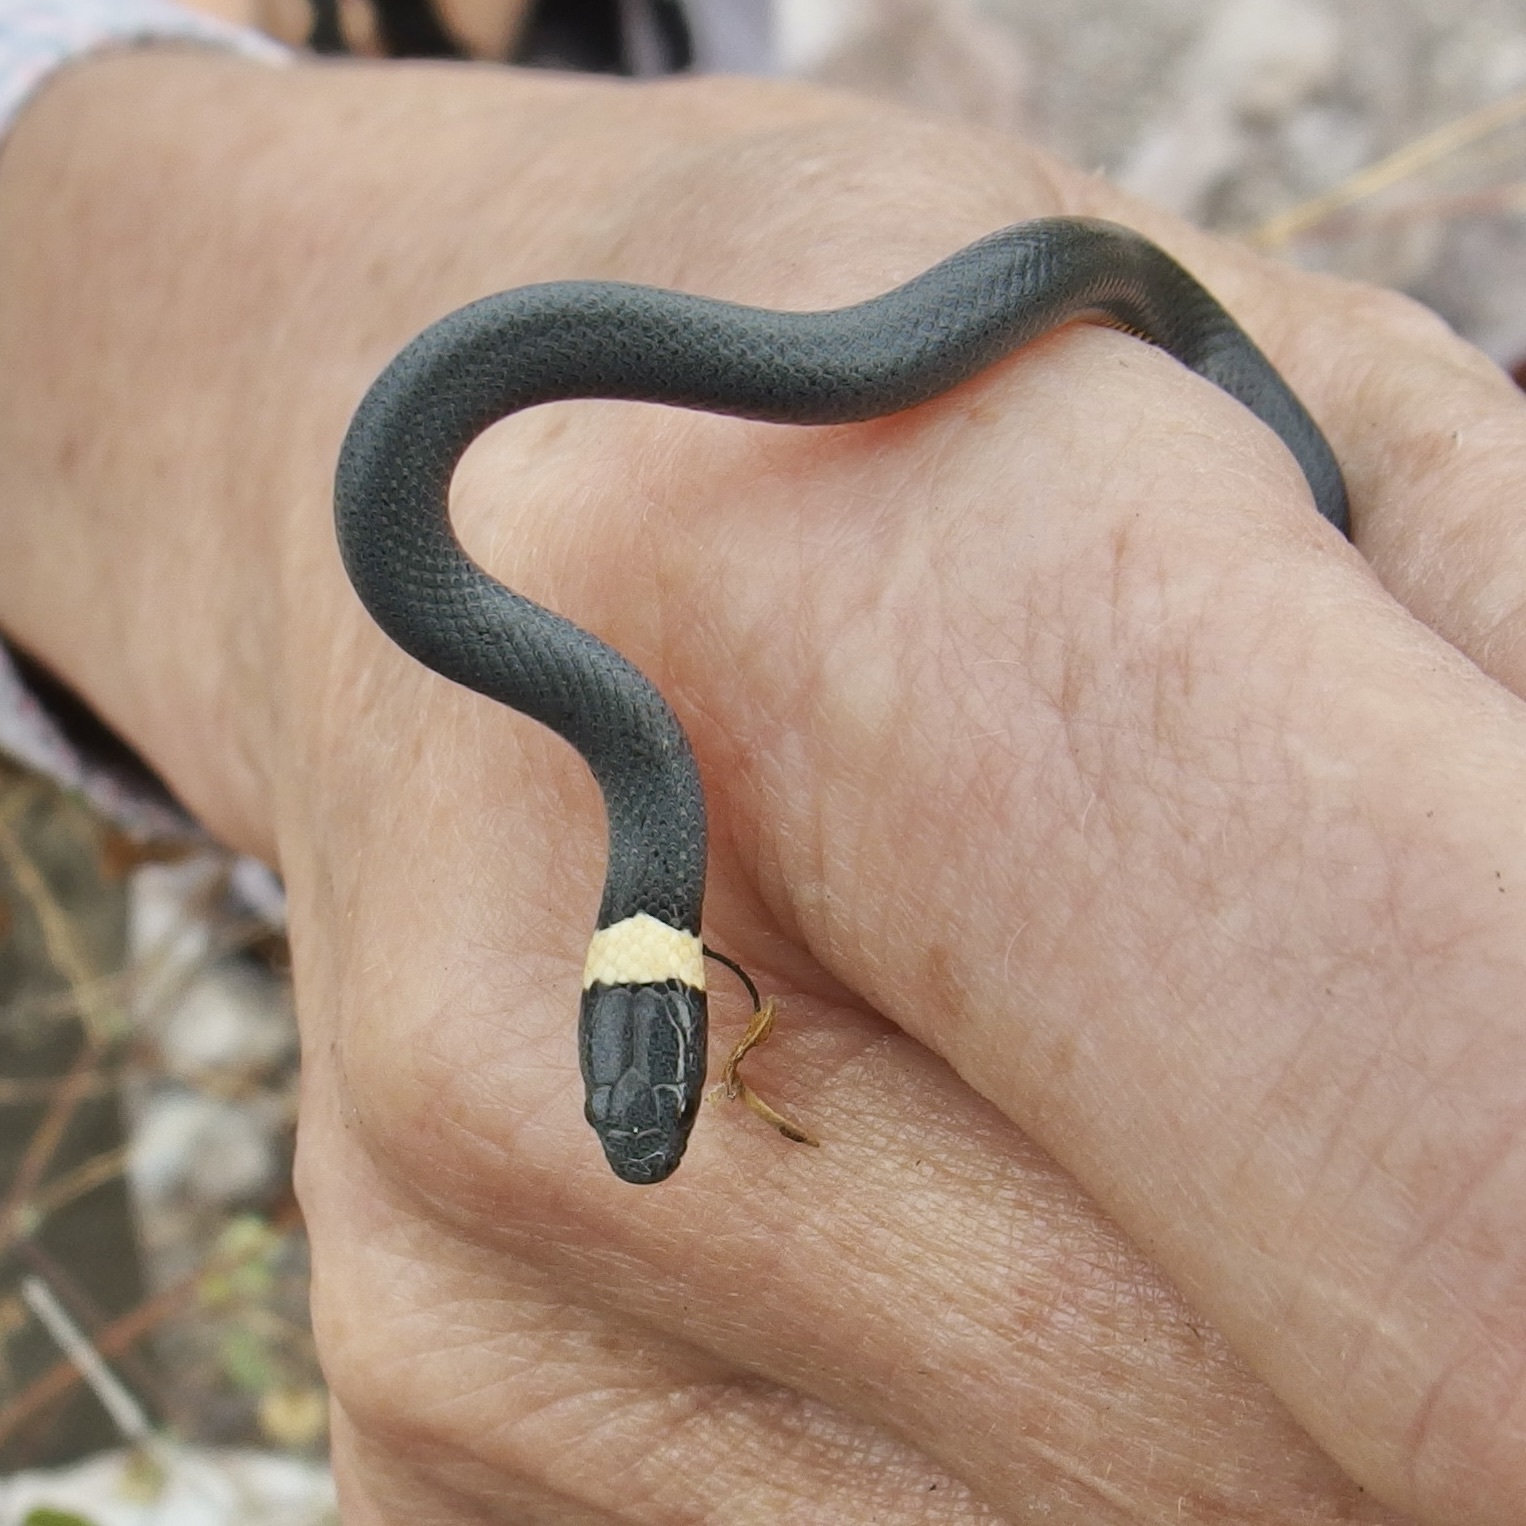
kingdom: Animalia
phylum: Chordata
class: Squamata
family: Colubridae
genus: Diadophis
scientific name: Diadophis punctatus
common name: Ringneck snake
